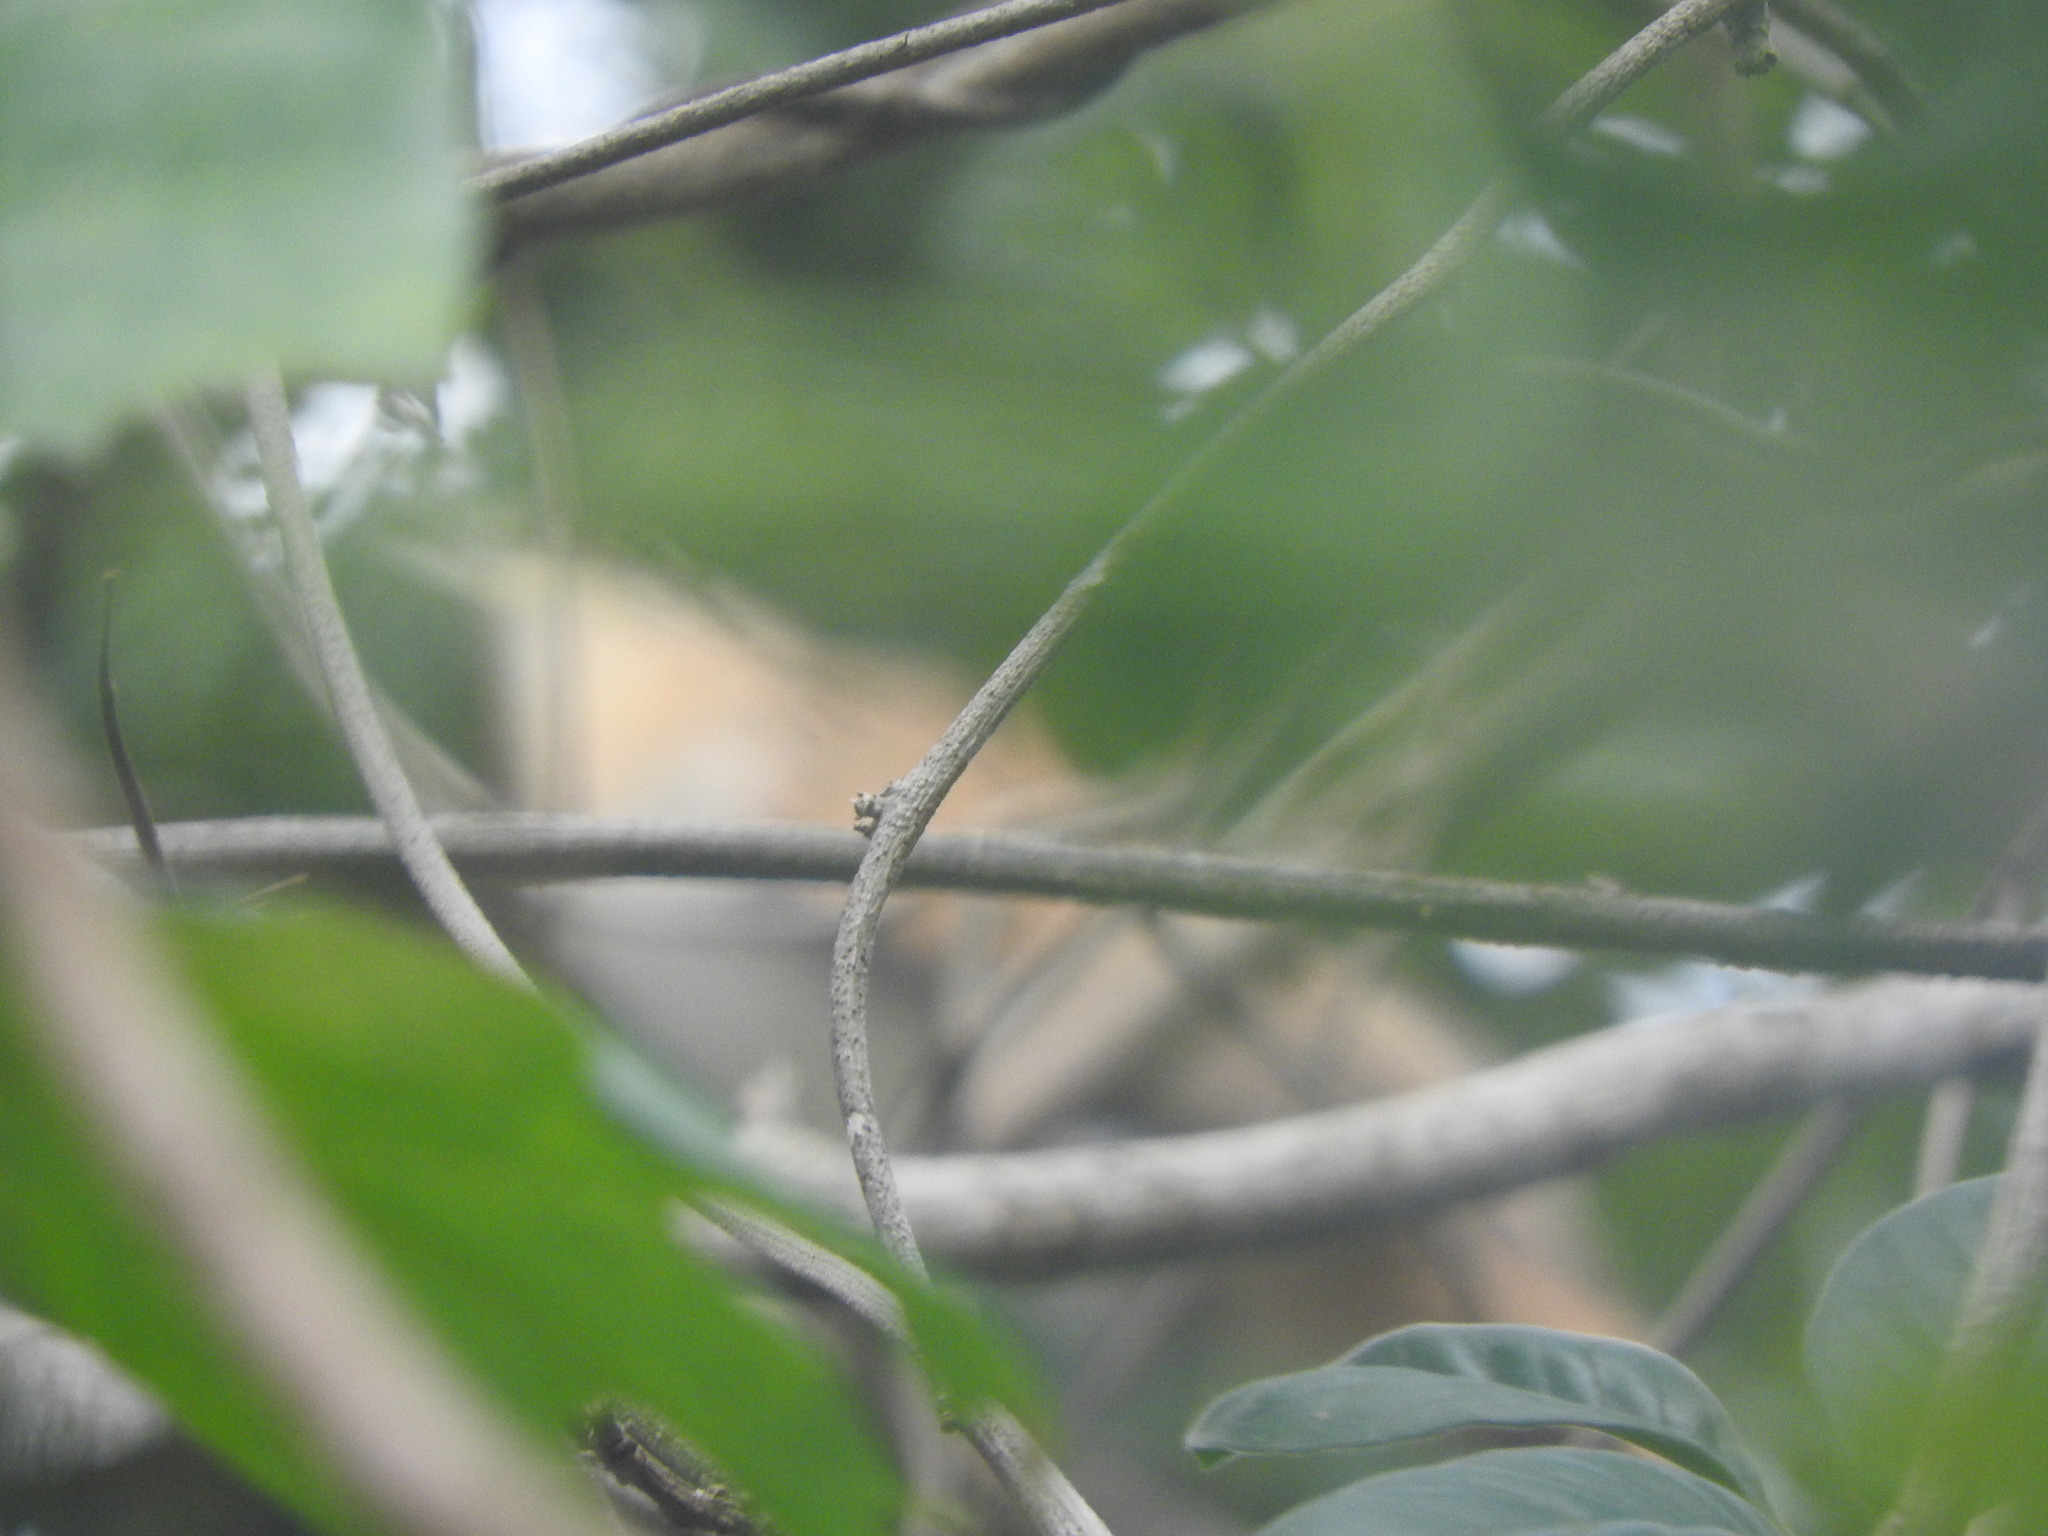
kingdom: Animalia
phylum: Chordata
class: Aves
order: Cuculiformes
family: Cuculidae
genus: Tapera
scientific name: Tapera naevia
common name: Striped cuckoo
